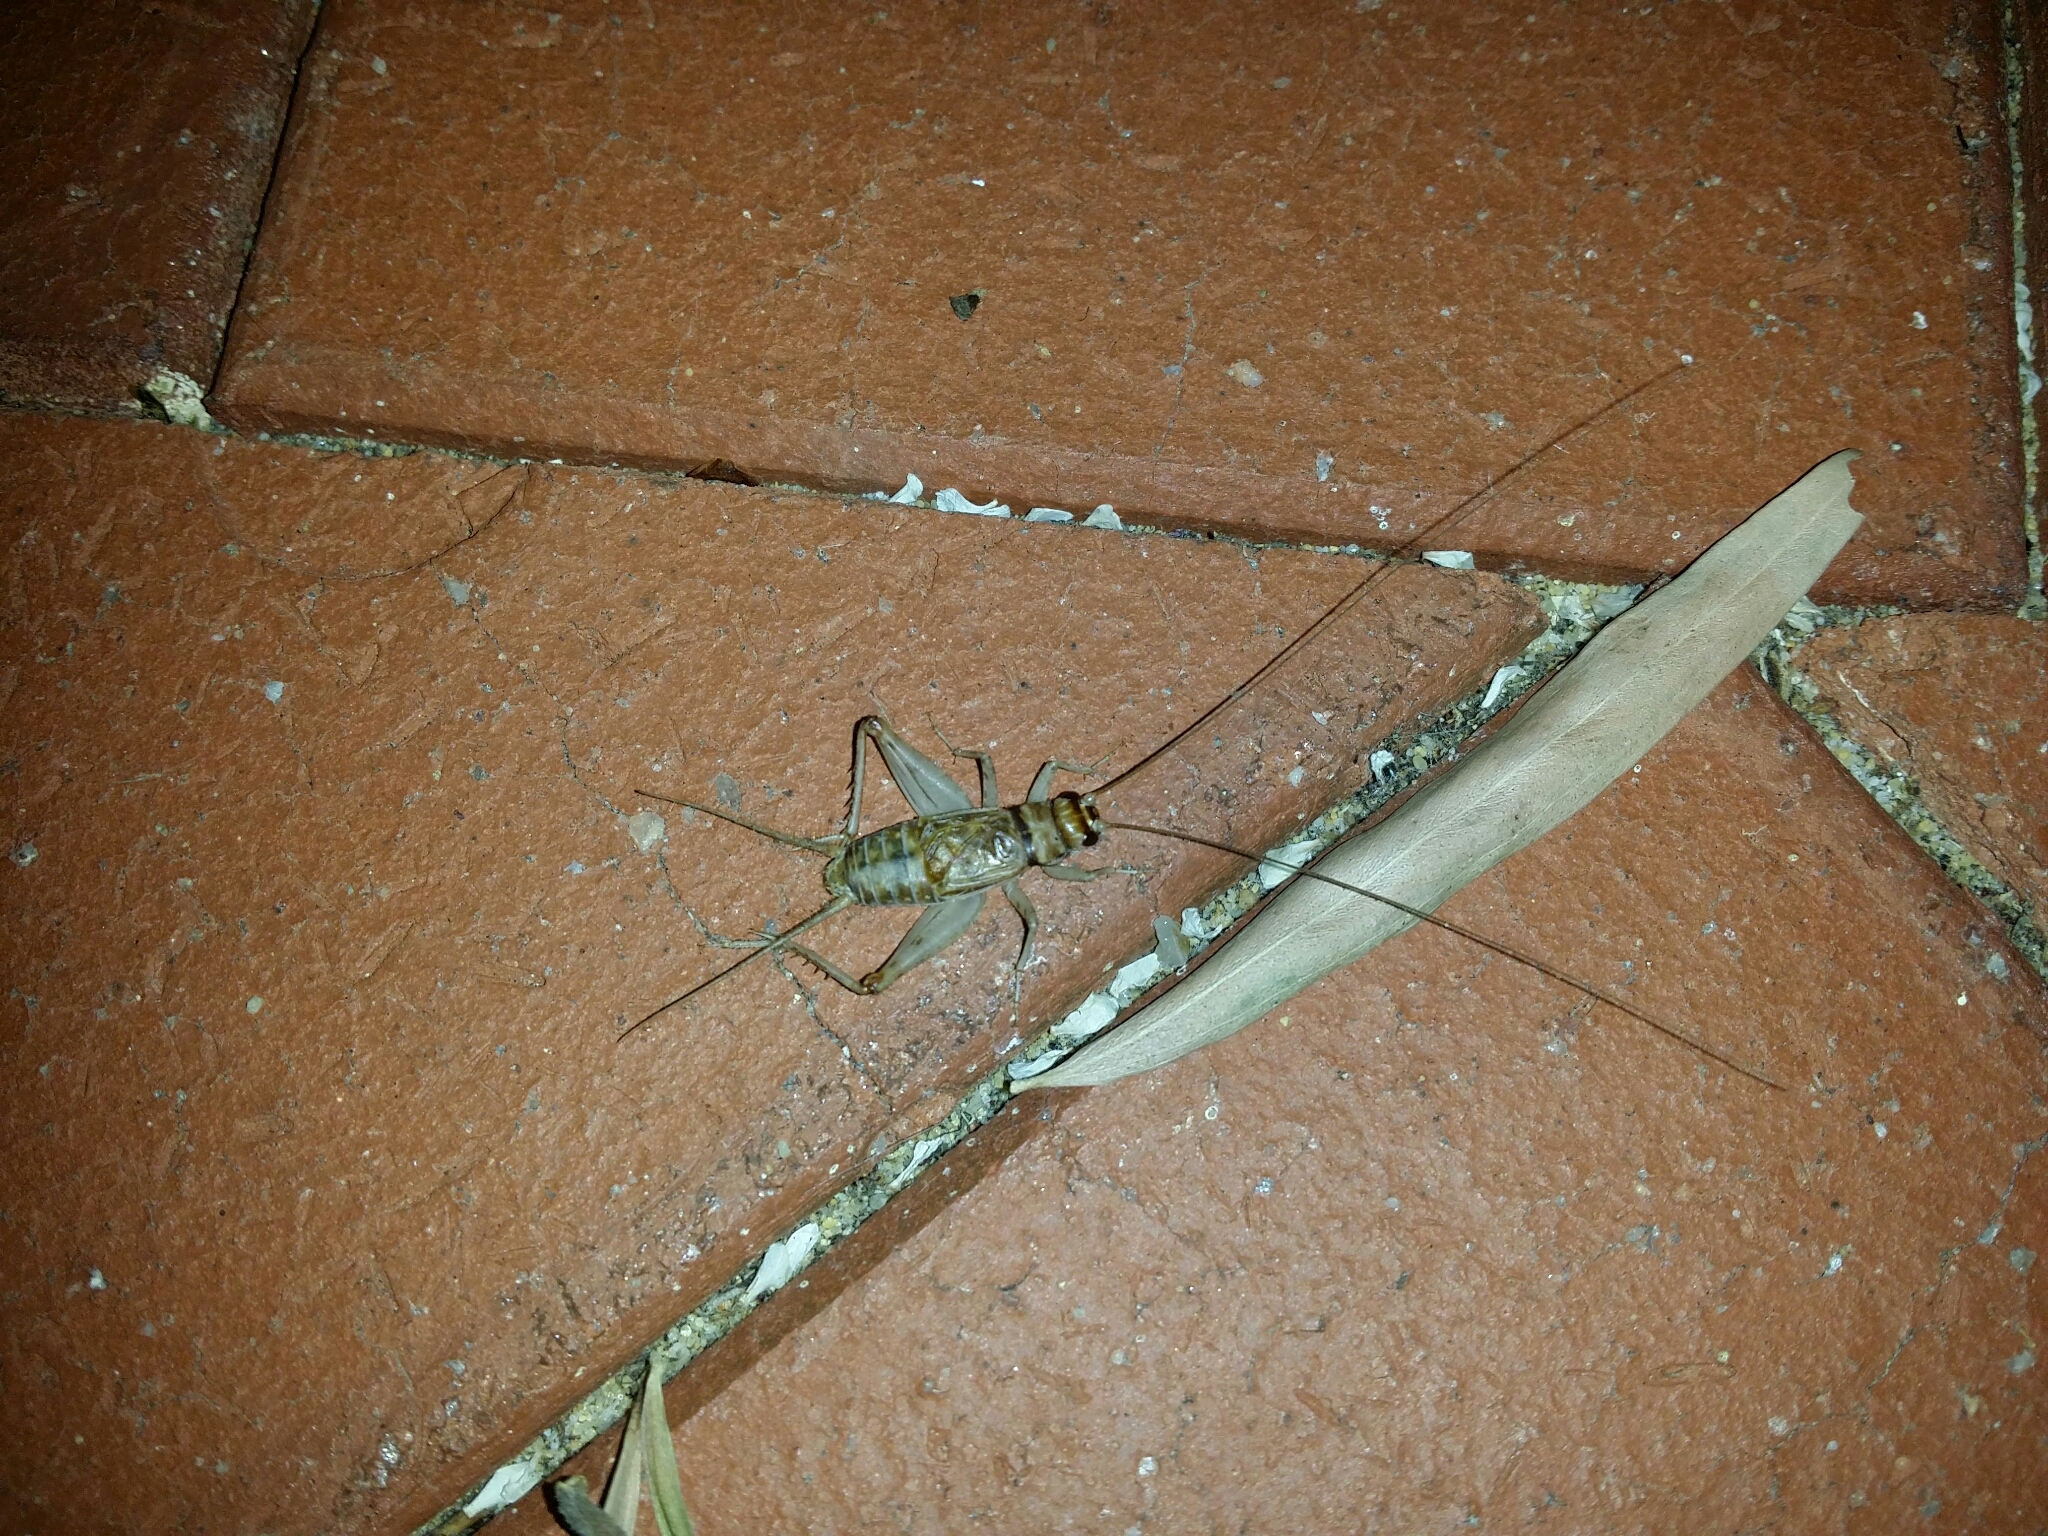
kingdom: Animalia
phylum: Arthropoda
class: Insecta
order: Orthoptera
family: Gryllidae
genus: Gryllodes
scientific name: Gryllodes sigillatus
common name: Tropical house cricket
